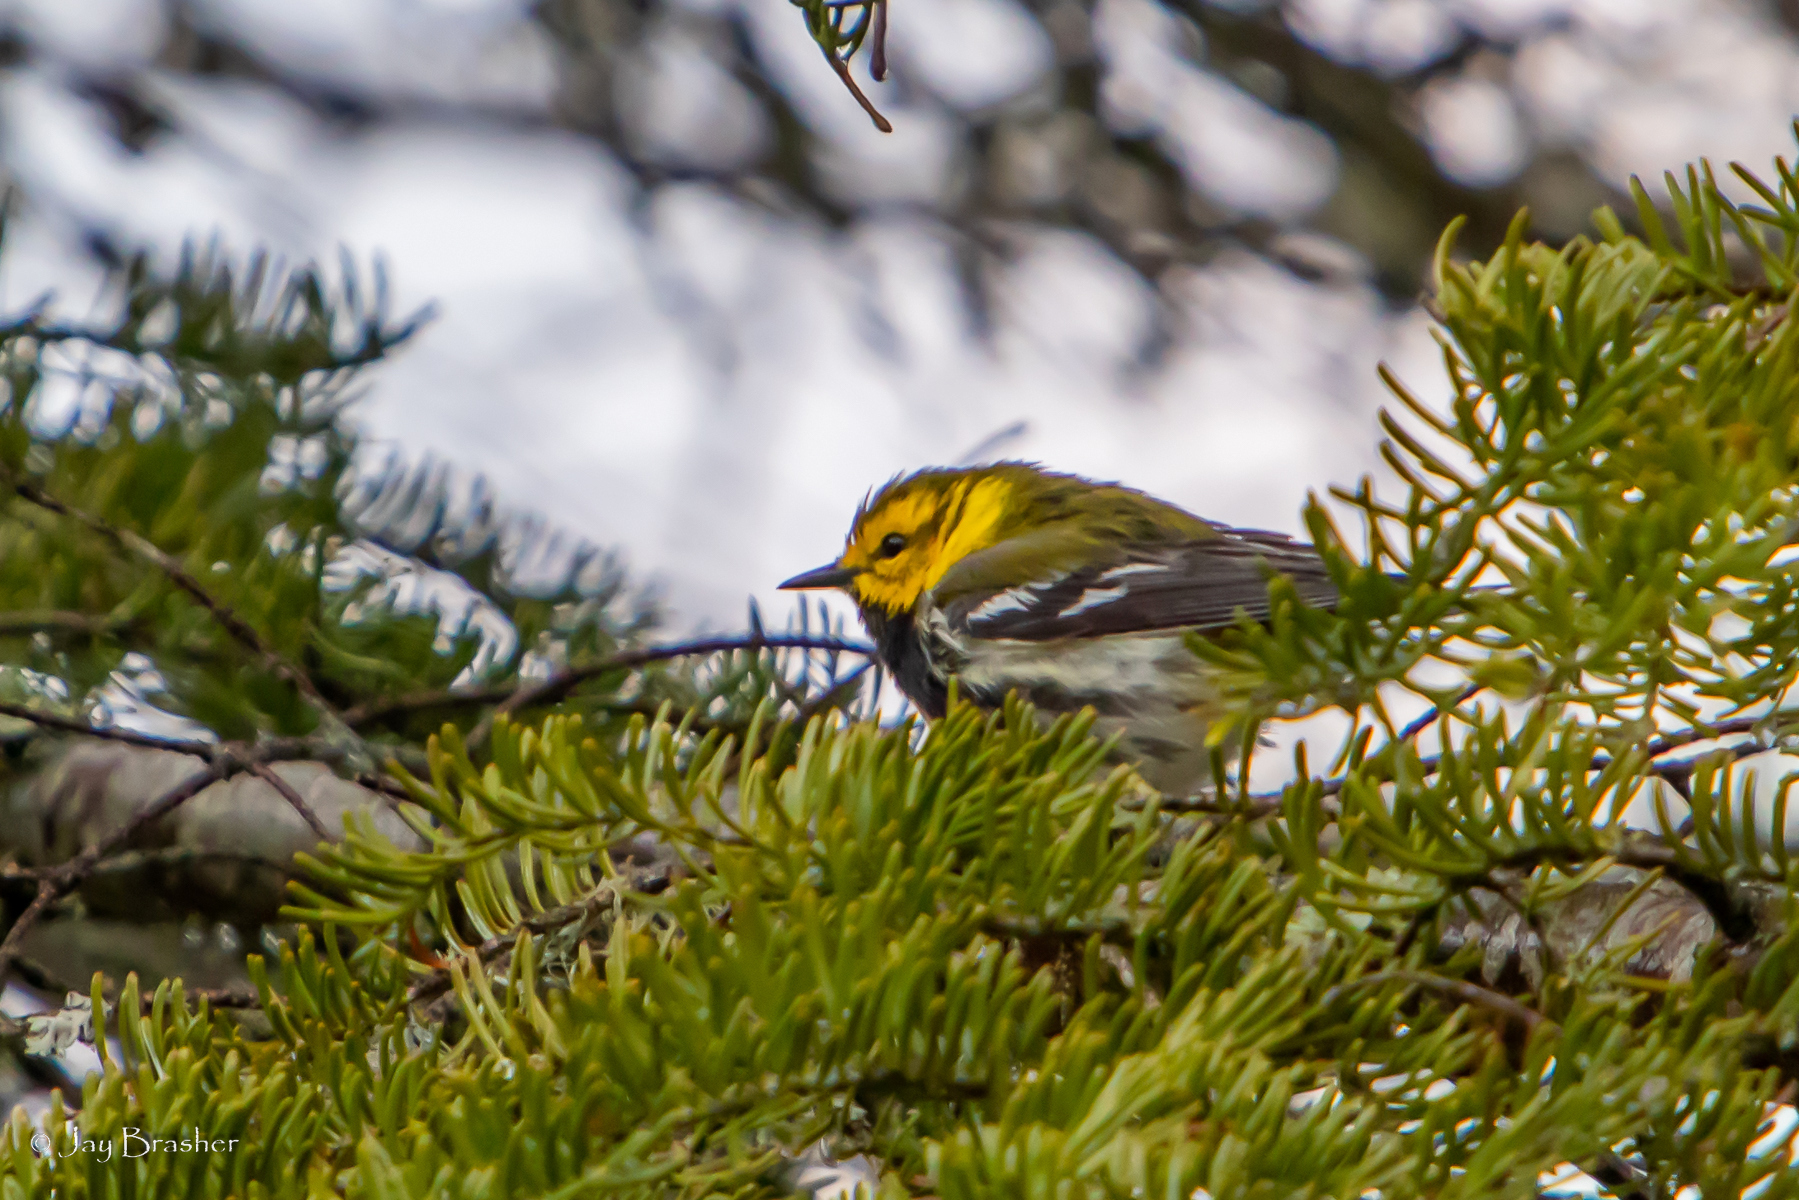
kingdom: Animalia
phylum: Chordata
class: Aves
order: Passeriformes
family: Parulidae
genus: Setophaga
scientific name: Setophaga virens
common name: Black-throated green warbler
